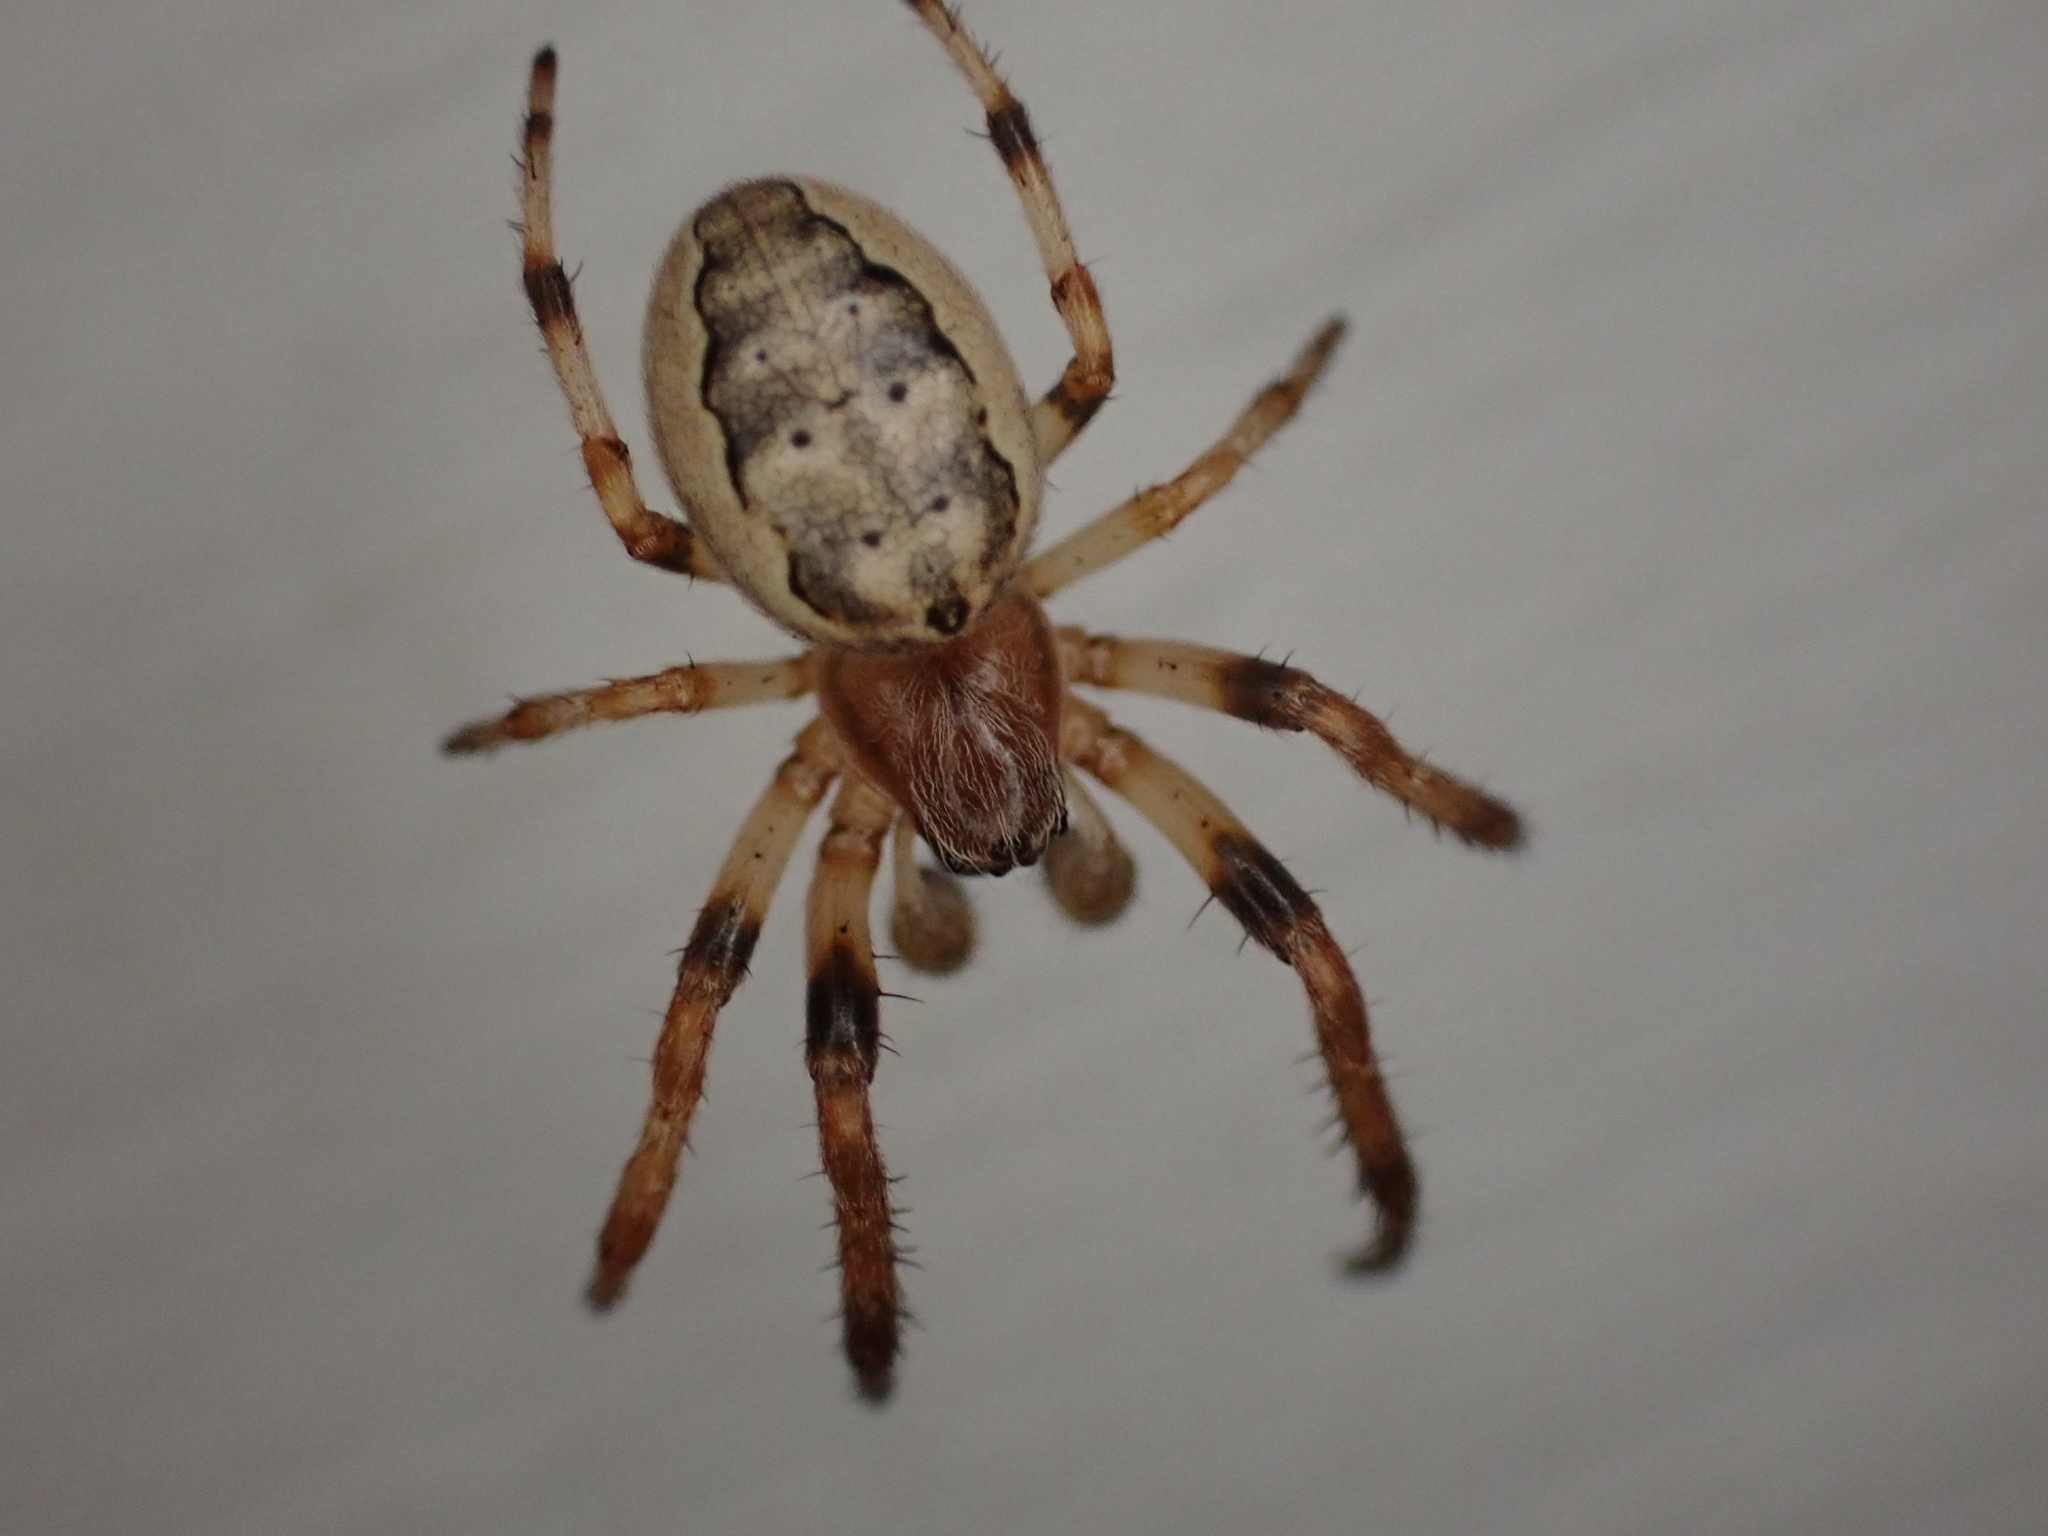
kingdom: Animalia
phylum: Arthropoda
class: Arachnida
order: Araneae
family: Araneidae
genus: Larinioides
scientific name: Larinioides cornutus
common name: Furrow orbweaver
